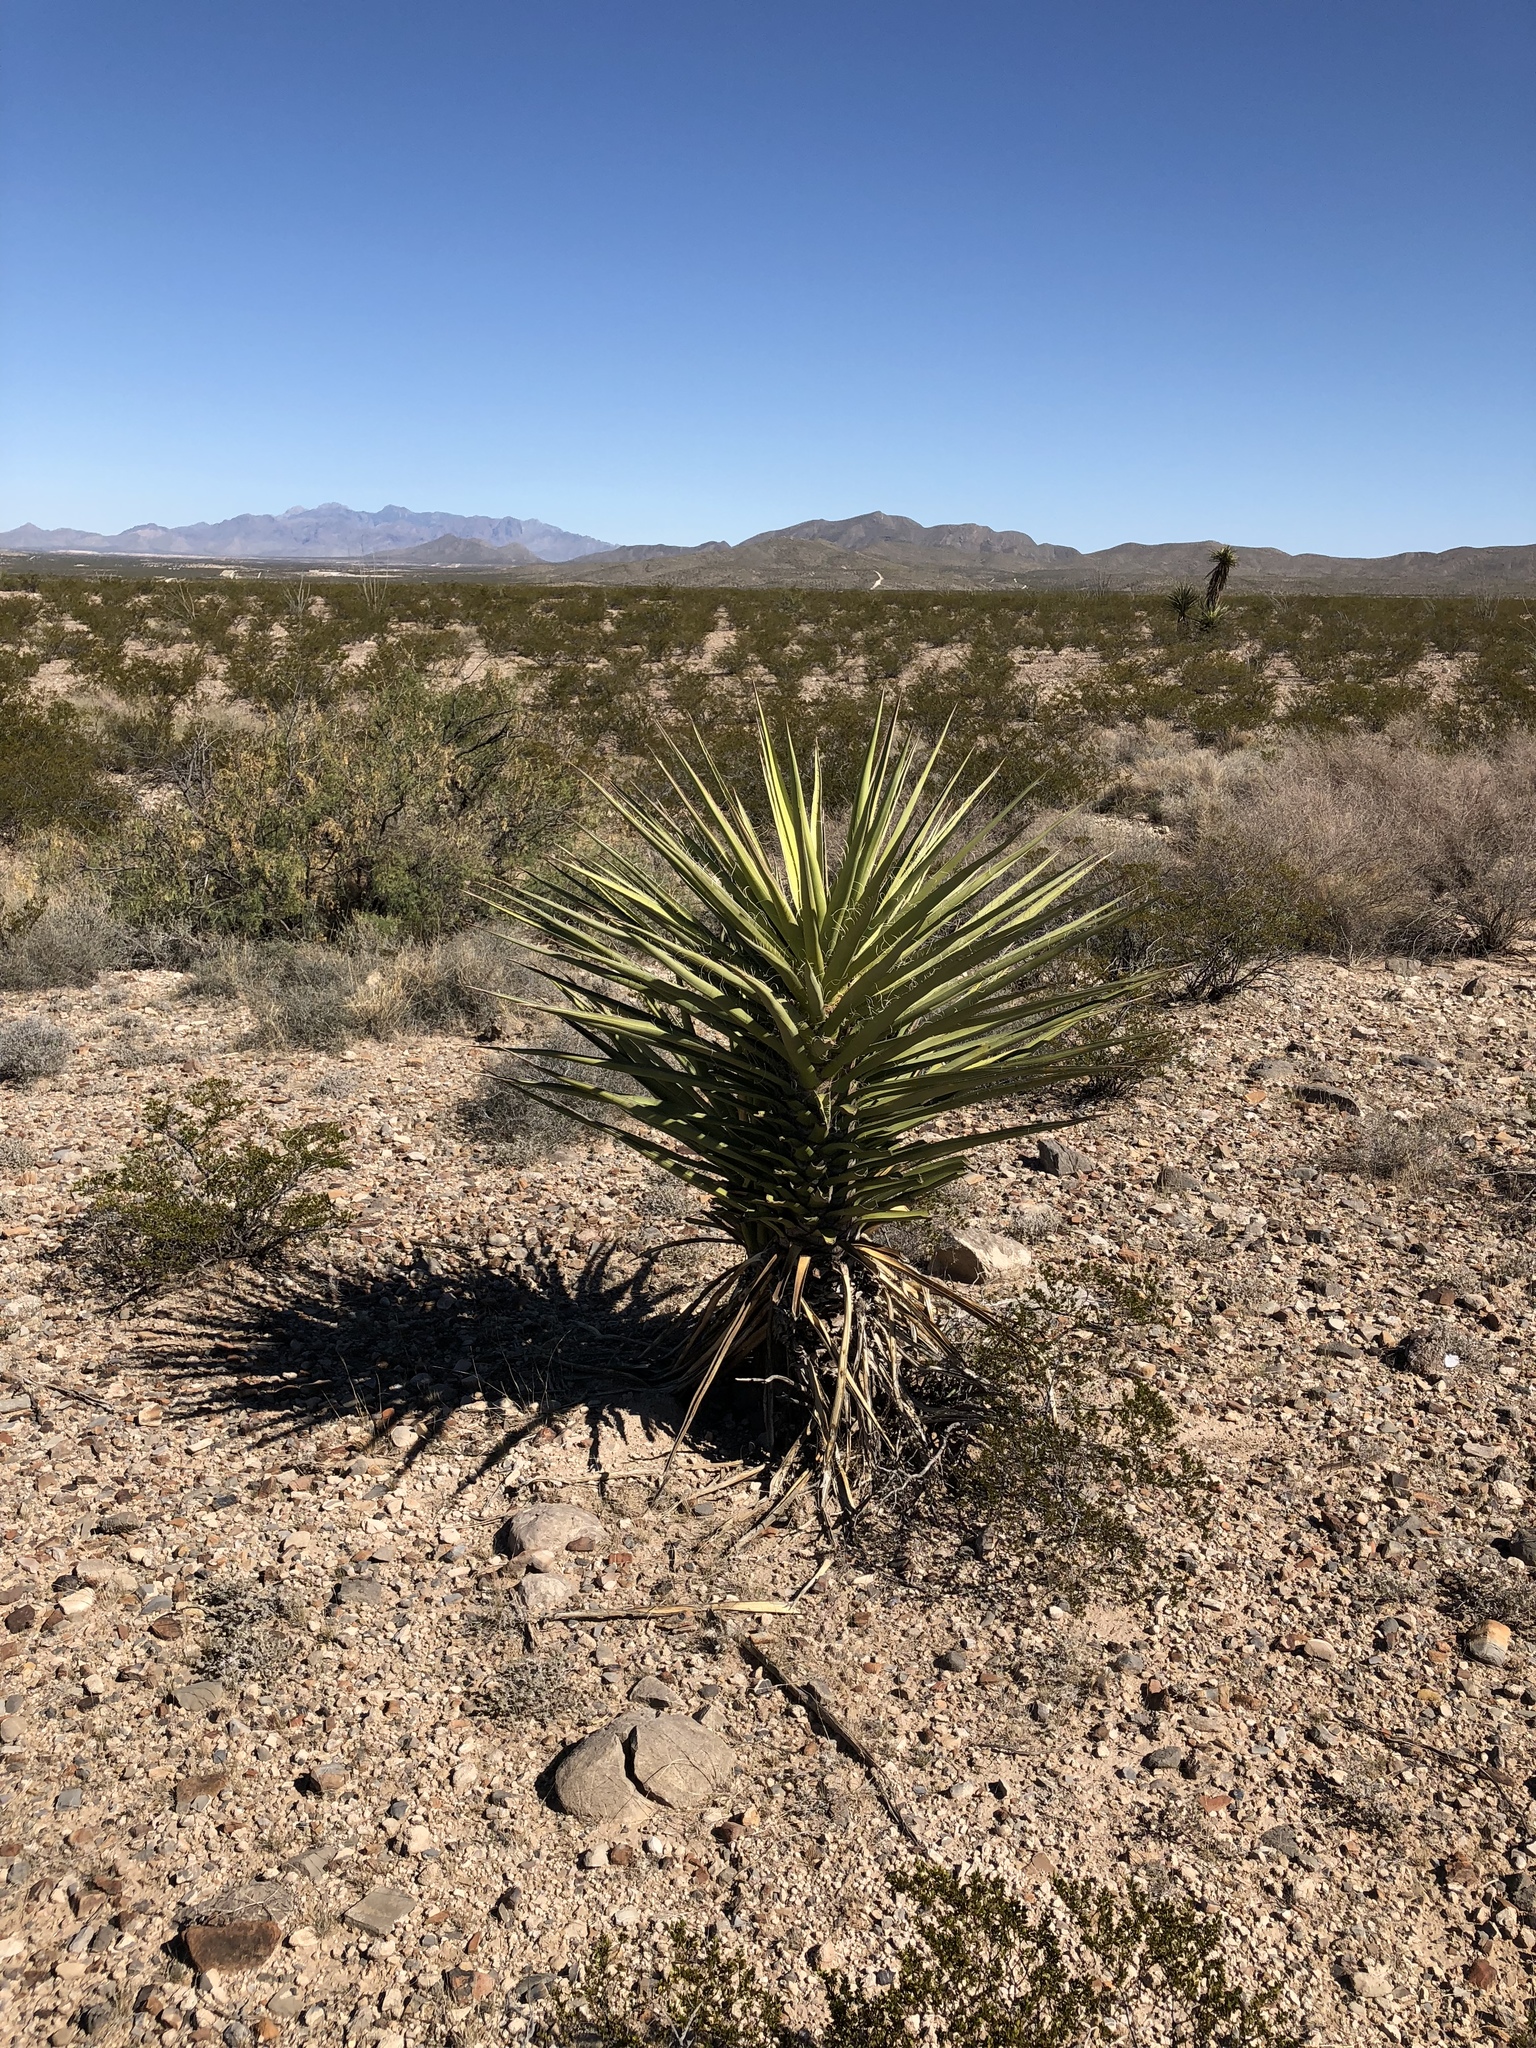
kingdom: Plantae
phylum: Tracheophyta
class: Liliopsida
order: Asparagales
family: Asparagaceae
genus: Yucca
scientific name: Yucca treculiana
